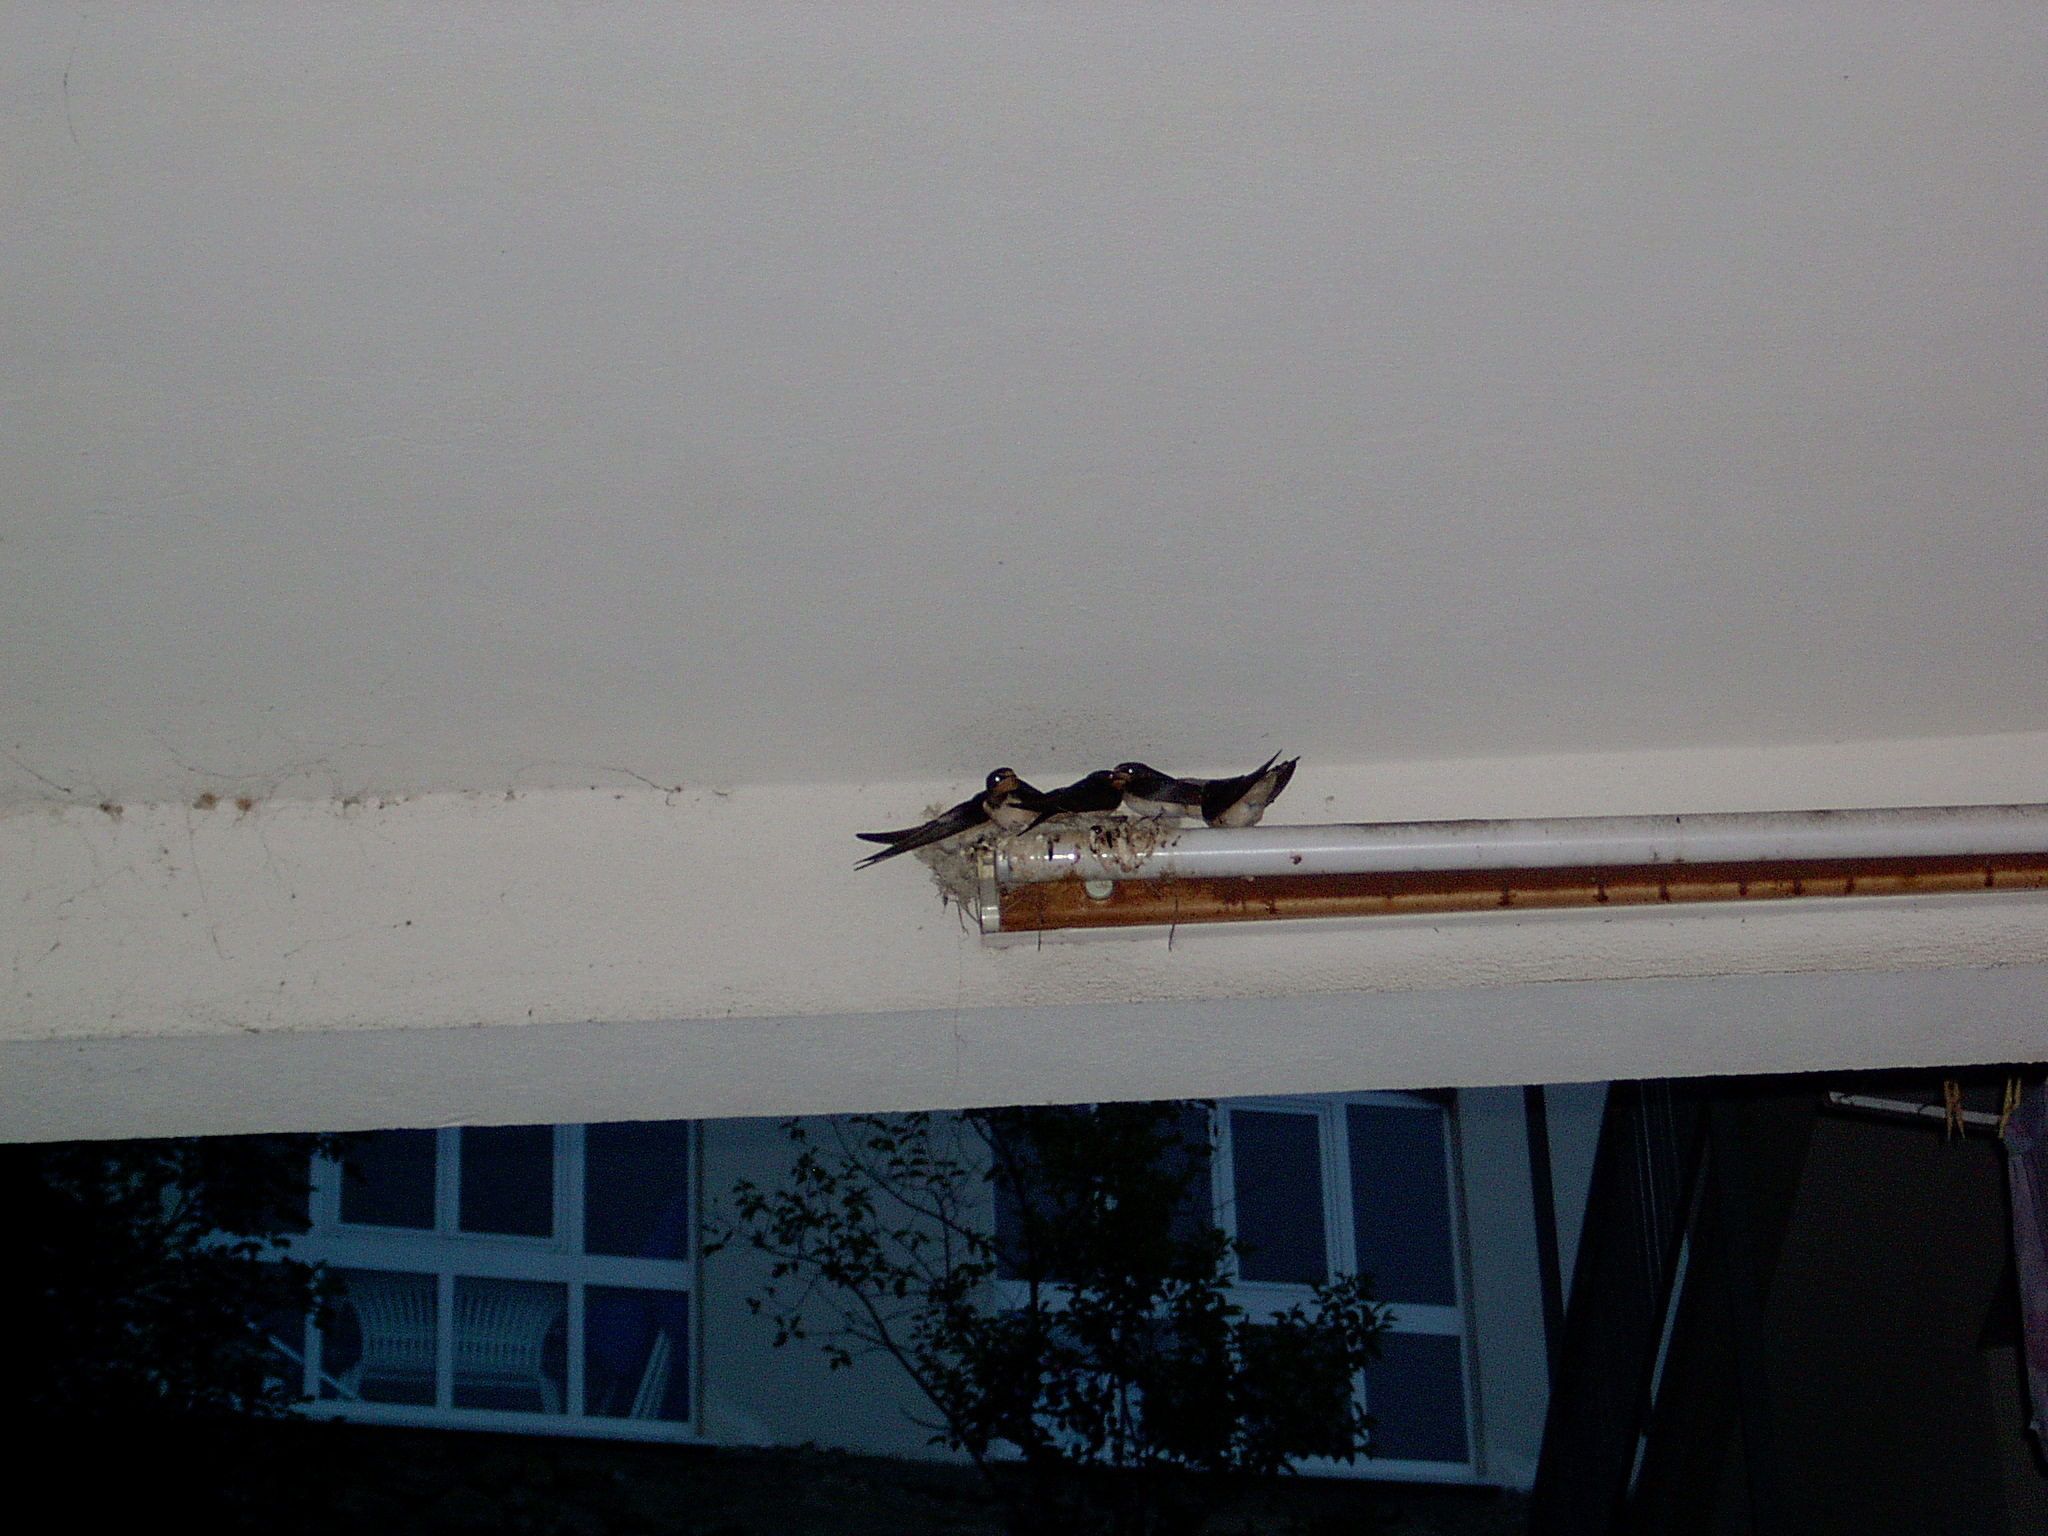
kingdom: Animalia
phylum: Chordata
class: Aves
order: Passeriformes
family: Hirundinidae
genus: Hirundo
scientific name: Hirundo rustica
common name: Barn swallow
